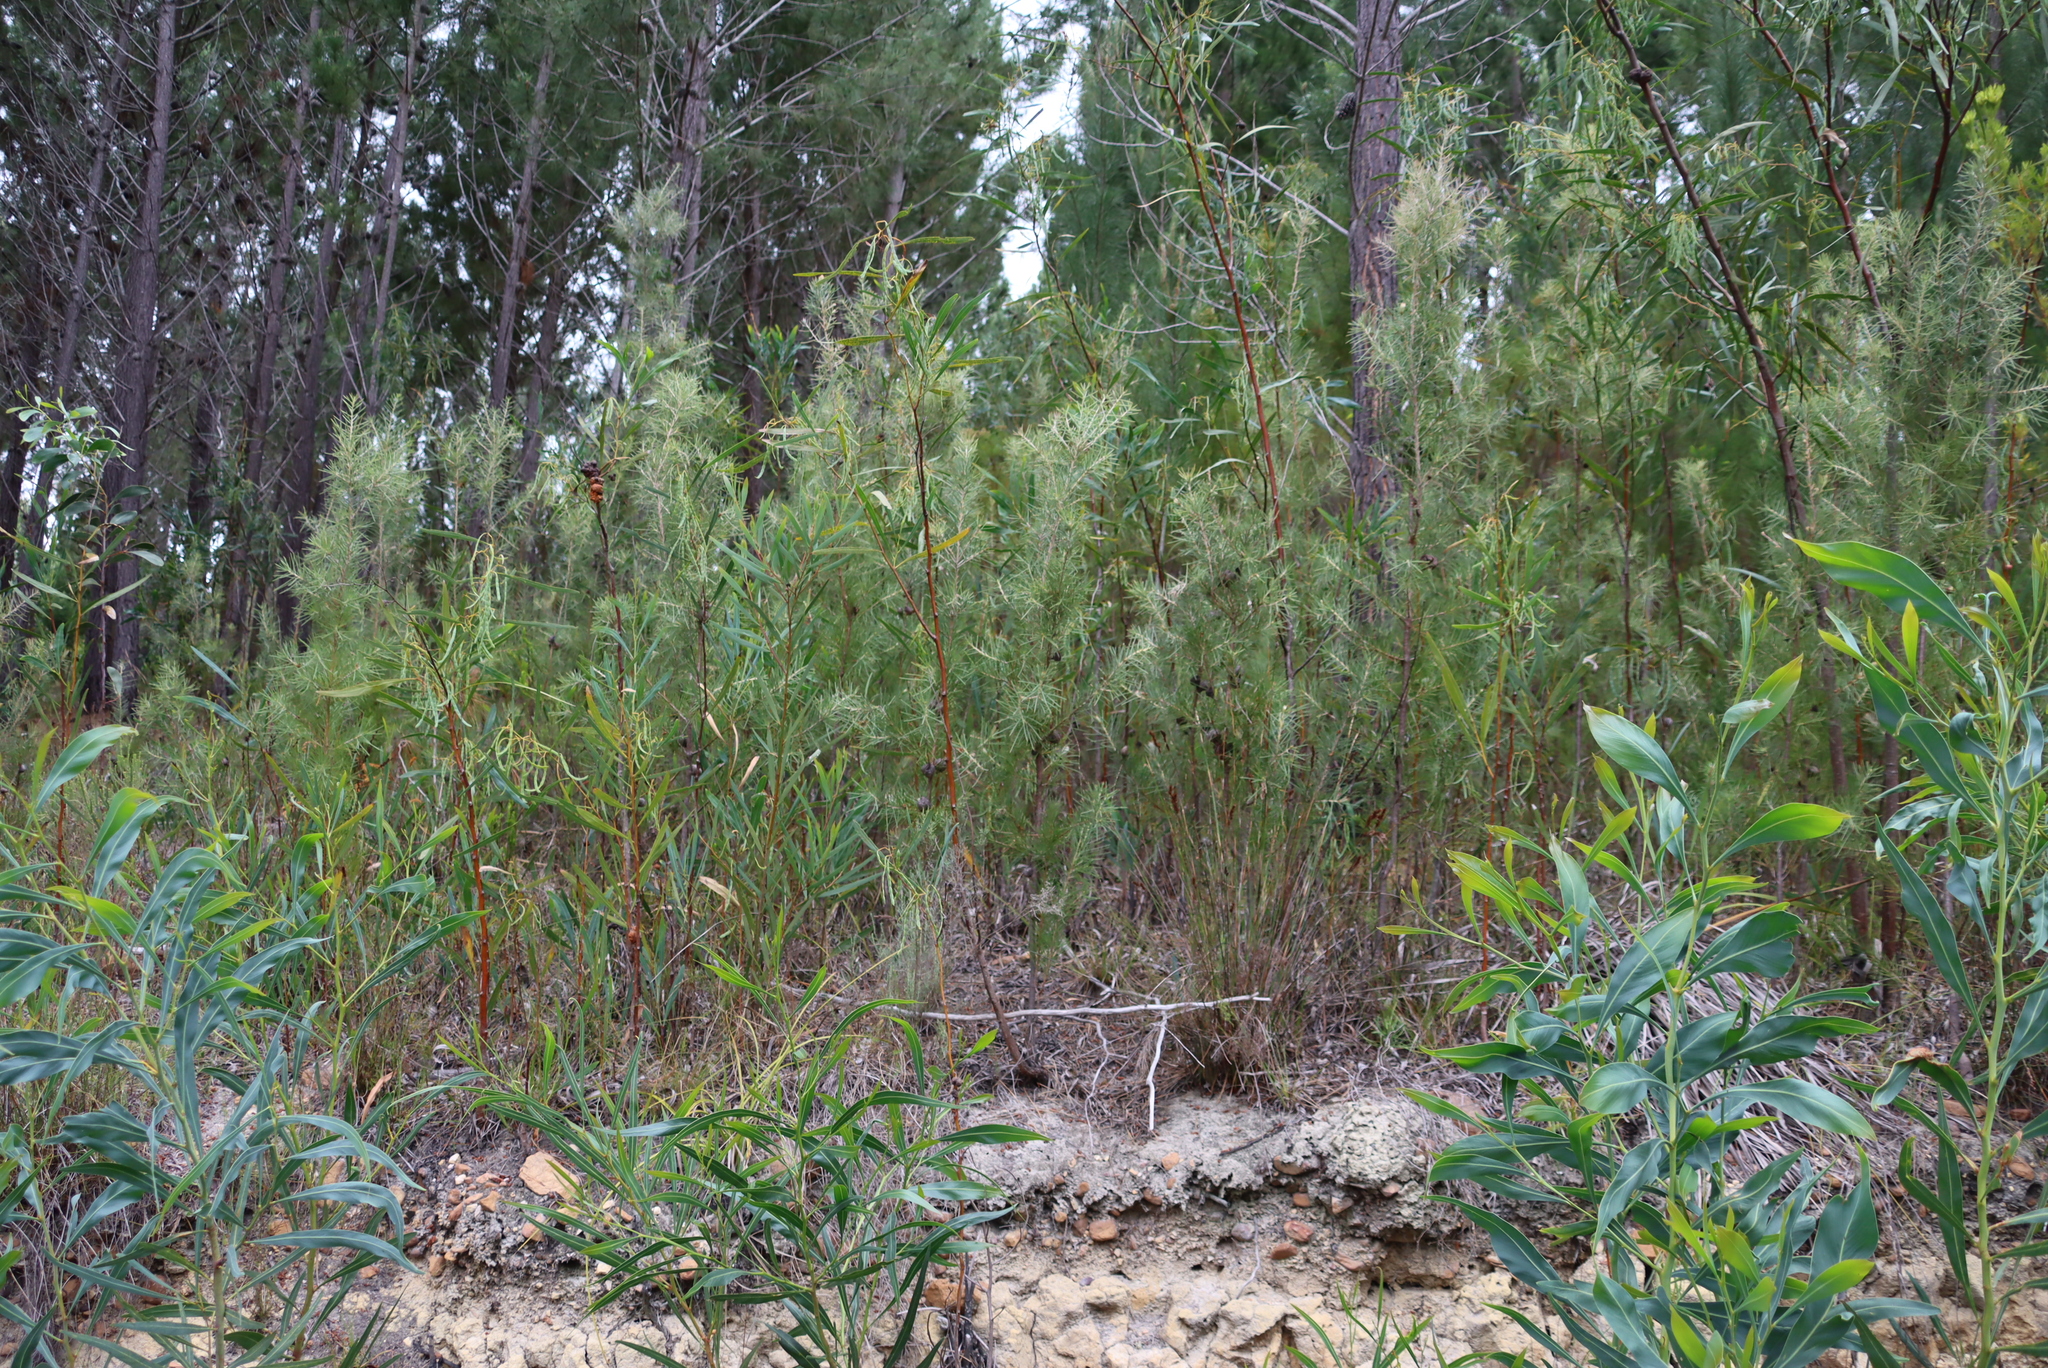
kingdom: Plantae
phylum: Tracheophyta
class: Magnoliopsida
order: Proteales
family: Proteaceae
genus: Hakea
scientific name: Hakea sericea
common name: Needle bush
